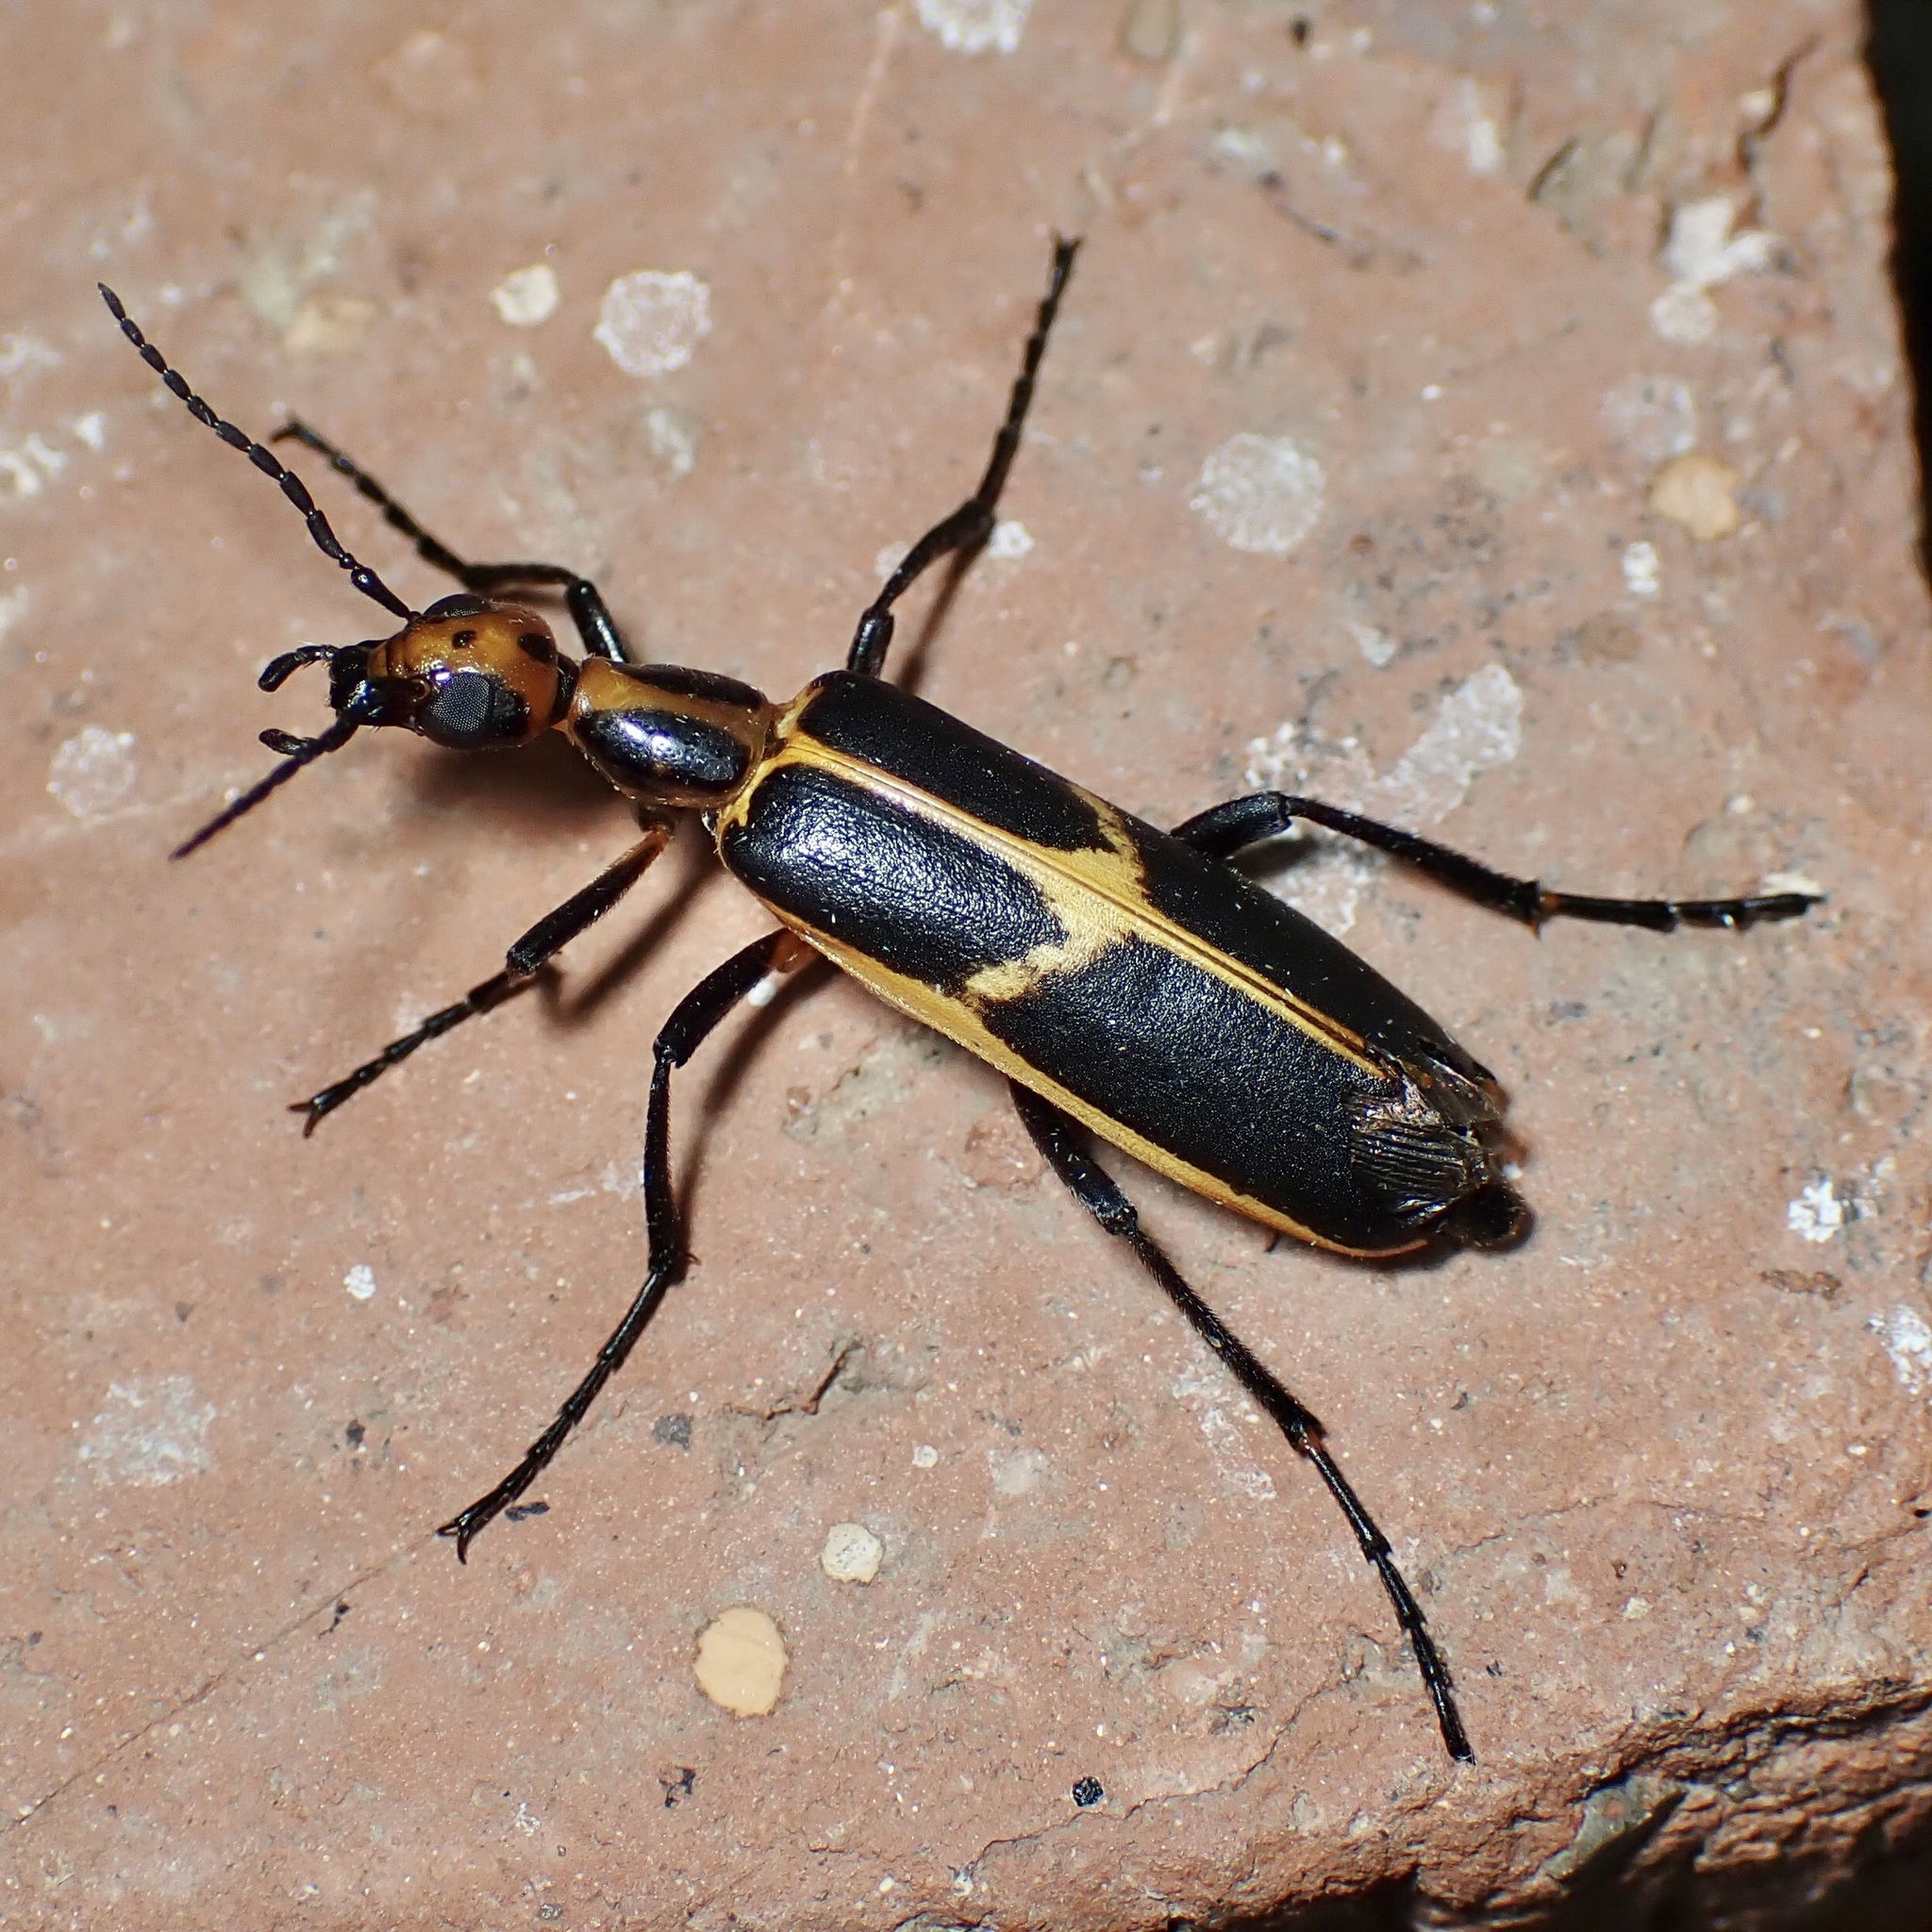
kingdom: Animalia
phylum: Arthropoda
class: Insecta
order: Coleoptera
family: Meloidae
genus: Pyrota
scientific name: Pyrota
